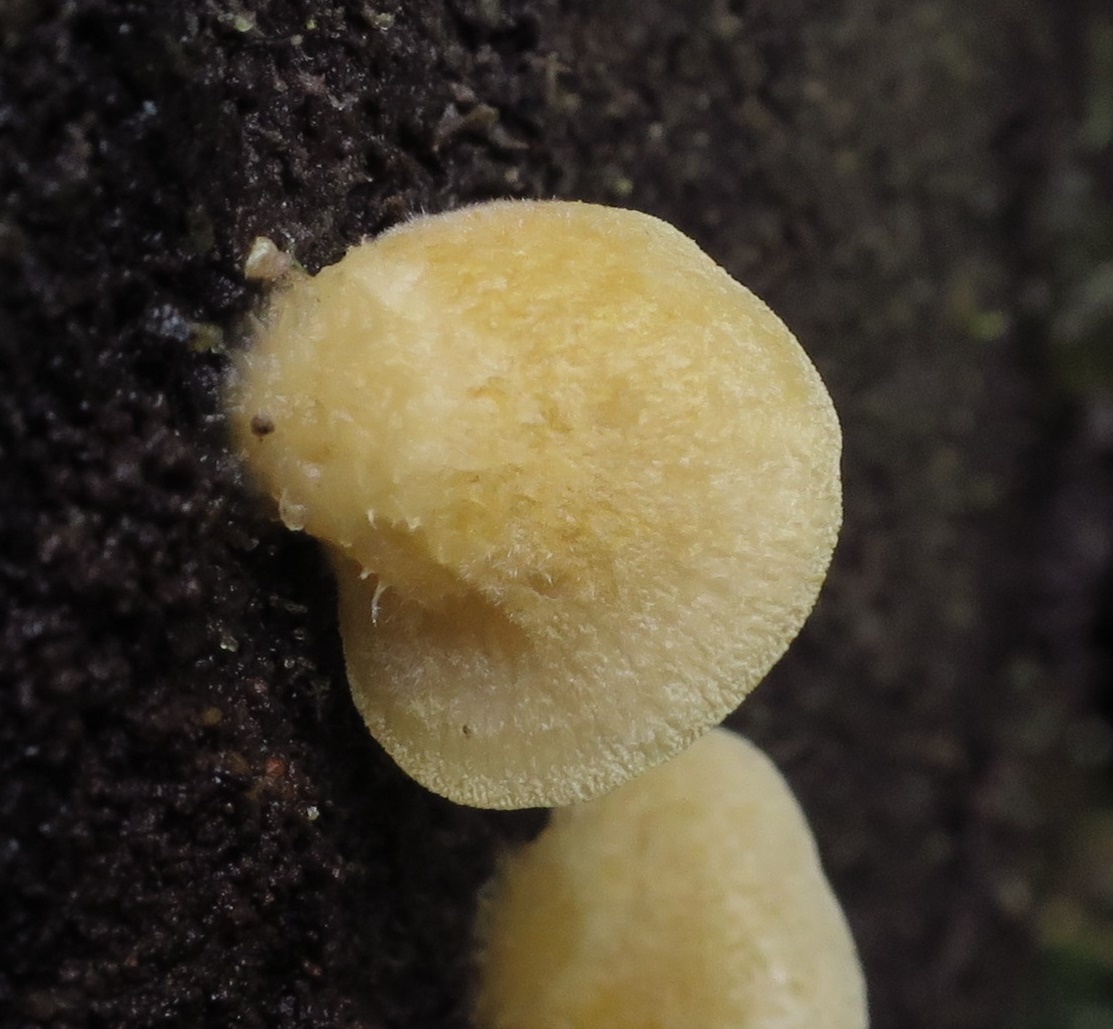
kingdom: Fungi
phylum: Basidiomycota
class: Agaricomycetes
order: Agaricales
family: Crepidotaceae
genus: Crepidotus
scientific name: Crepidotus praecipuus
